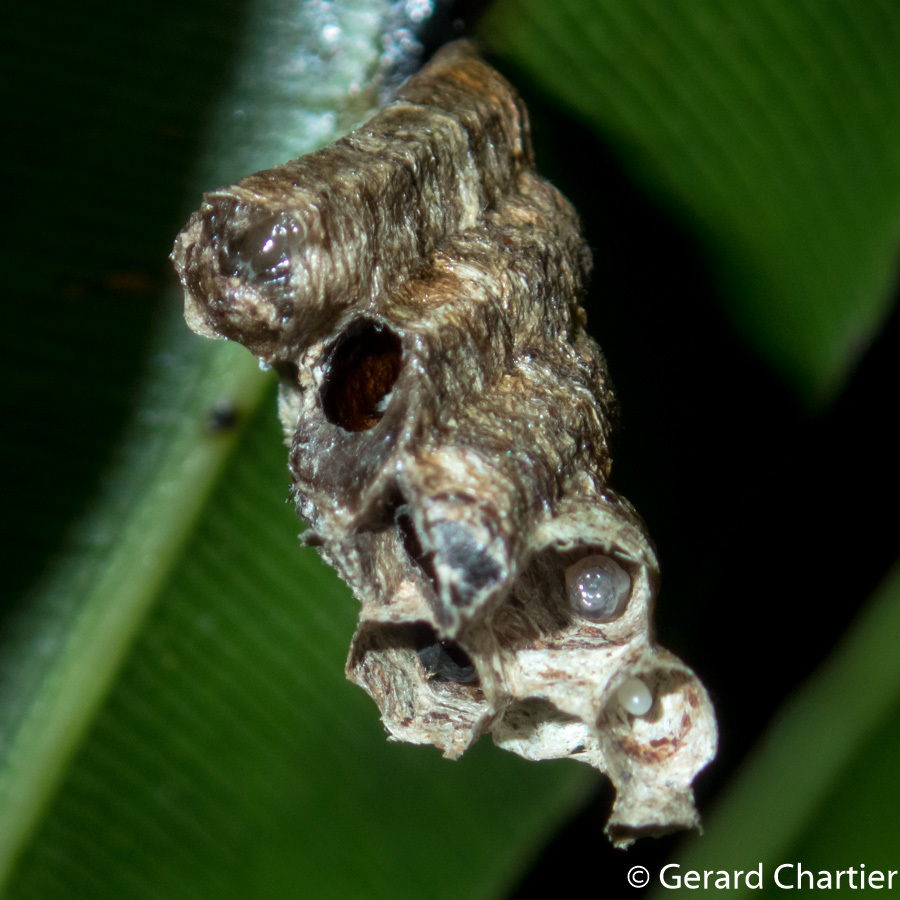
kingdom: Animalia
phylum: Arthropoda
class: Insecta
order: Hymenoptera
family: Vespidae
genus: Ropalidia
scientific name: Ropalidia stigma
